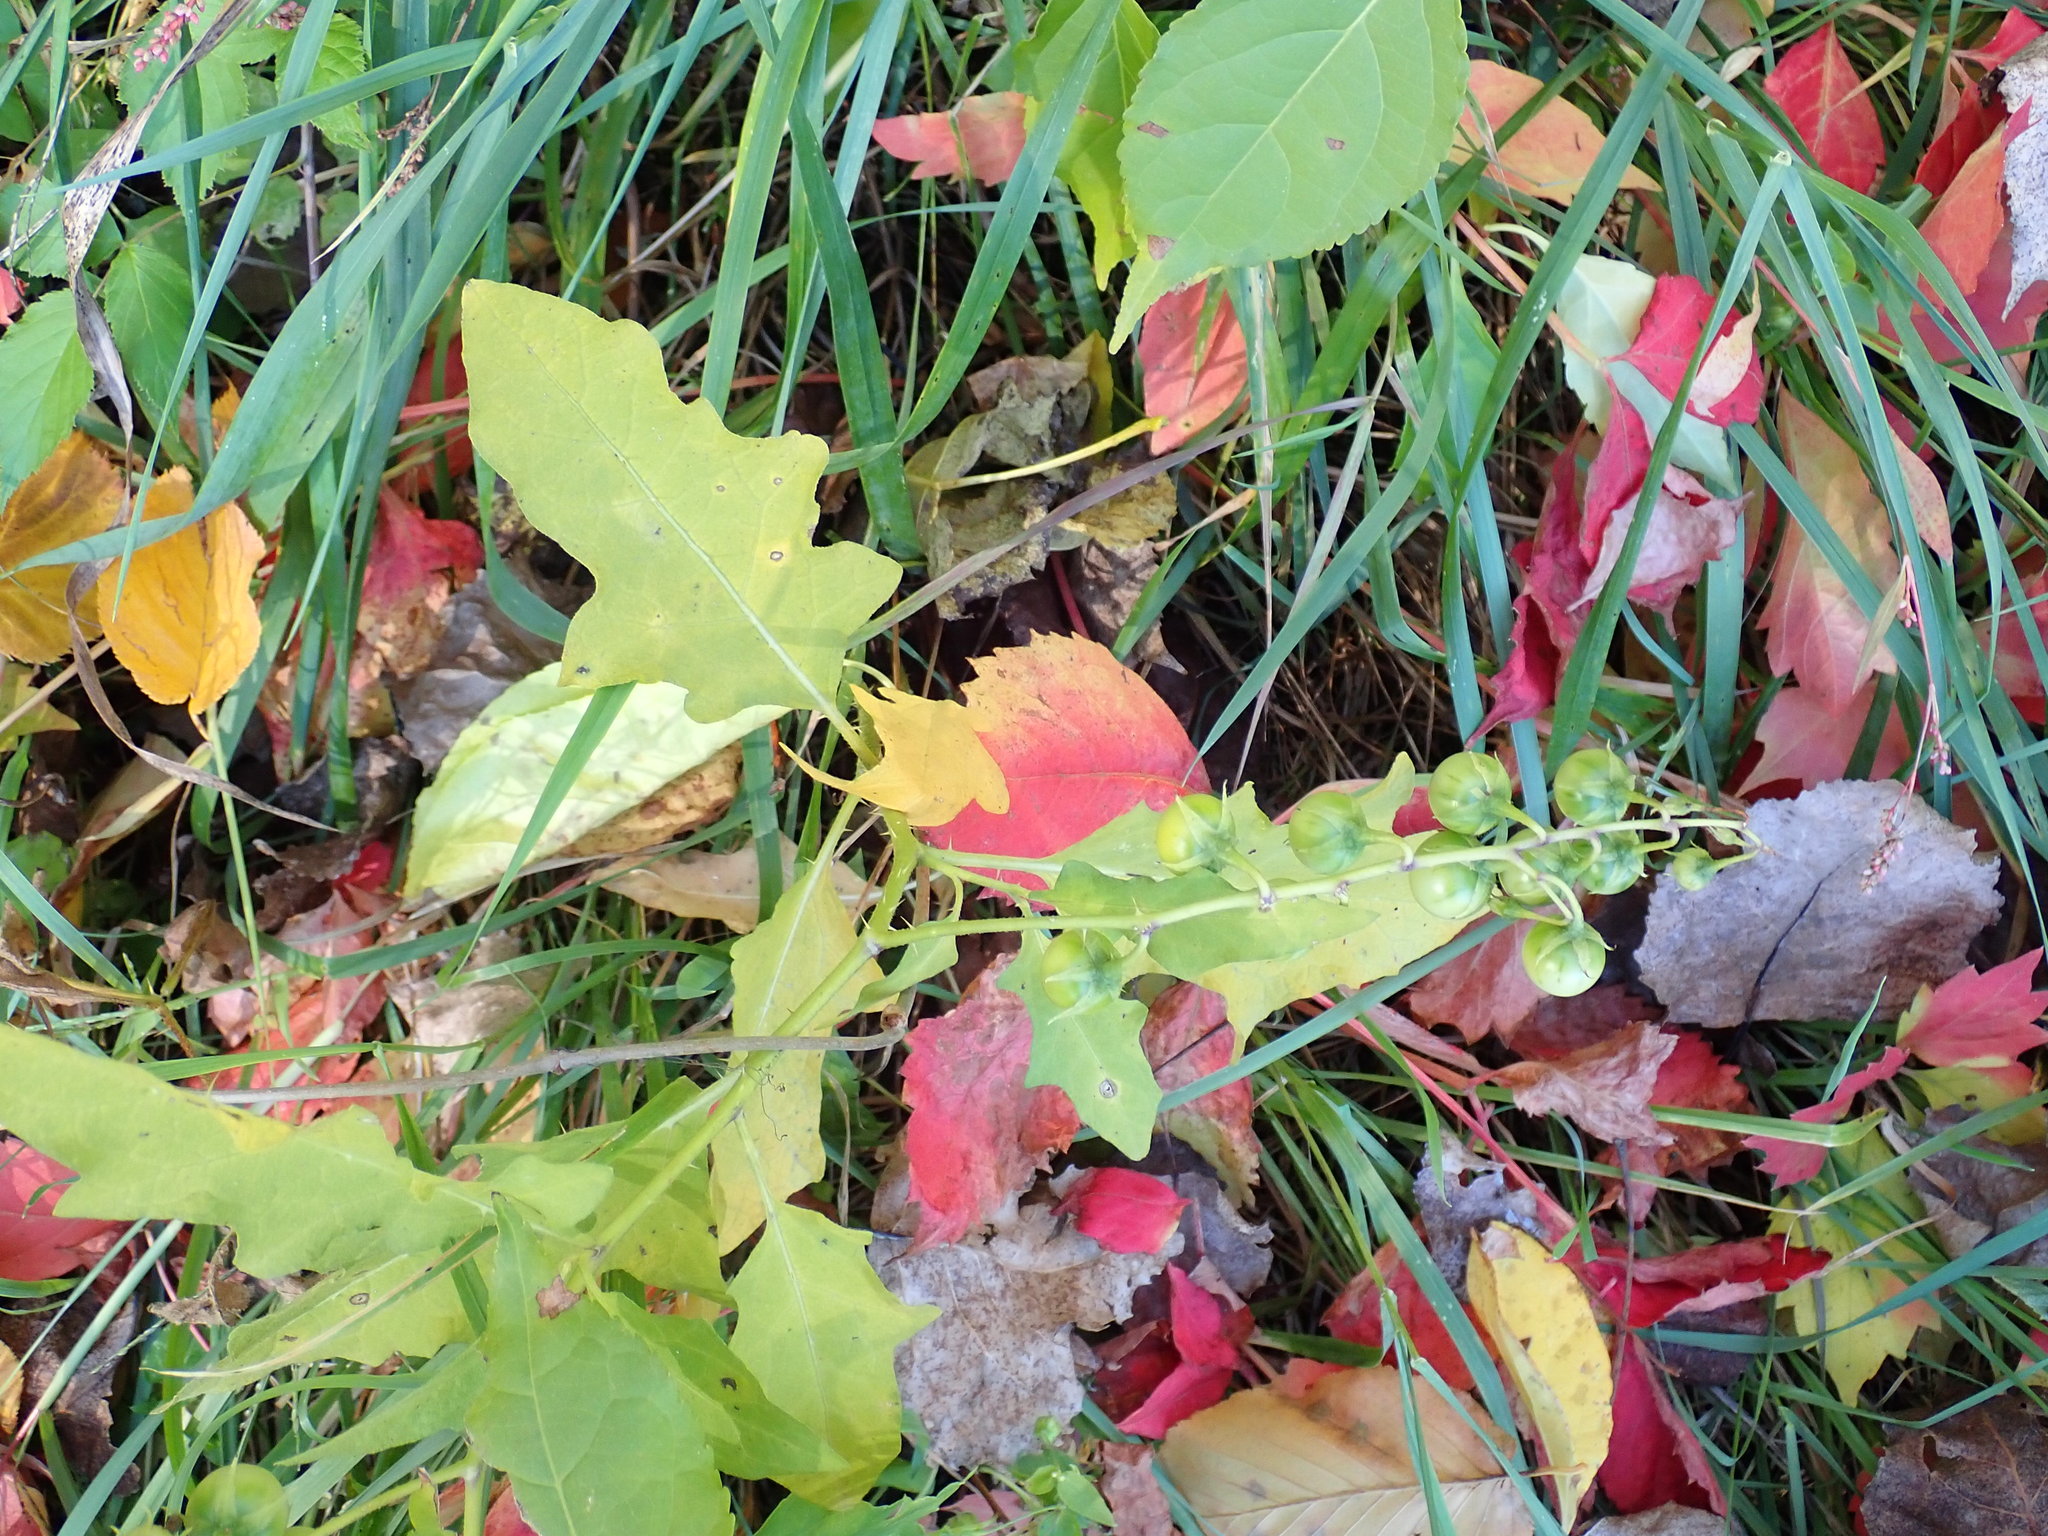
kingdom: Plantae
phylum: Tracheophyta
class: Magnoliopsida
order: Solanales
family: Solanaceae
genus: Solanum
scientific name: Solanum carolinense
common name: Horse-nettle
